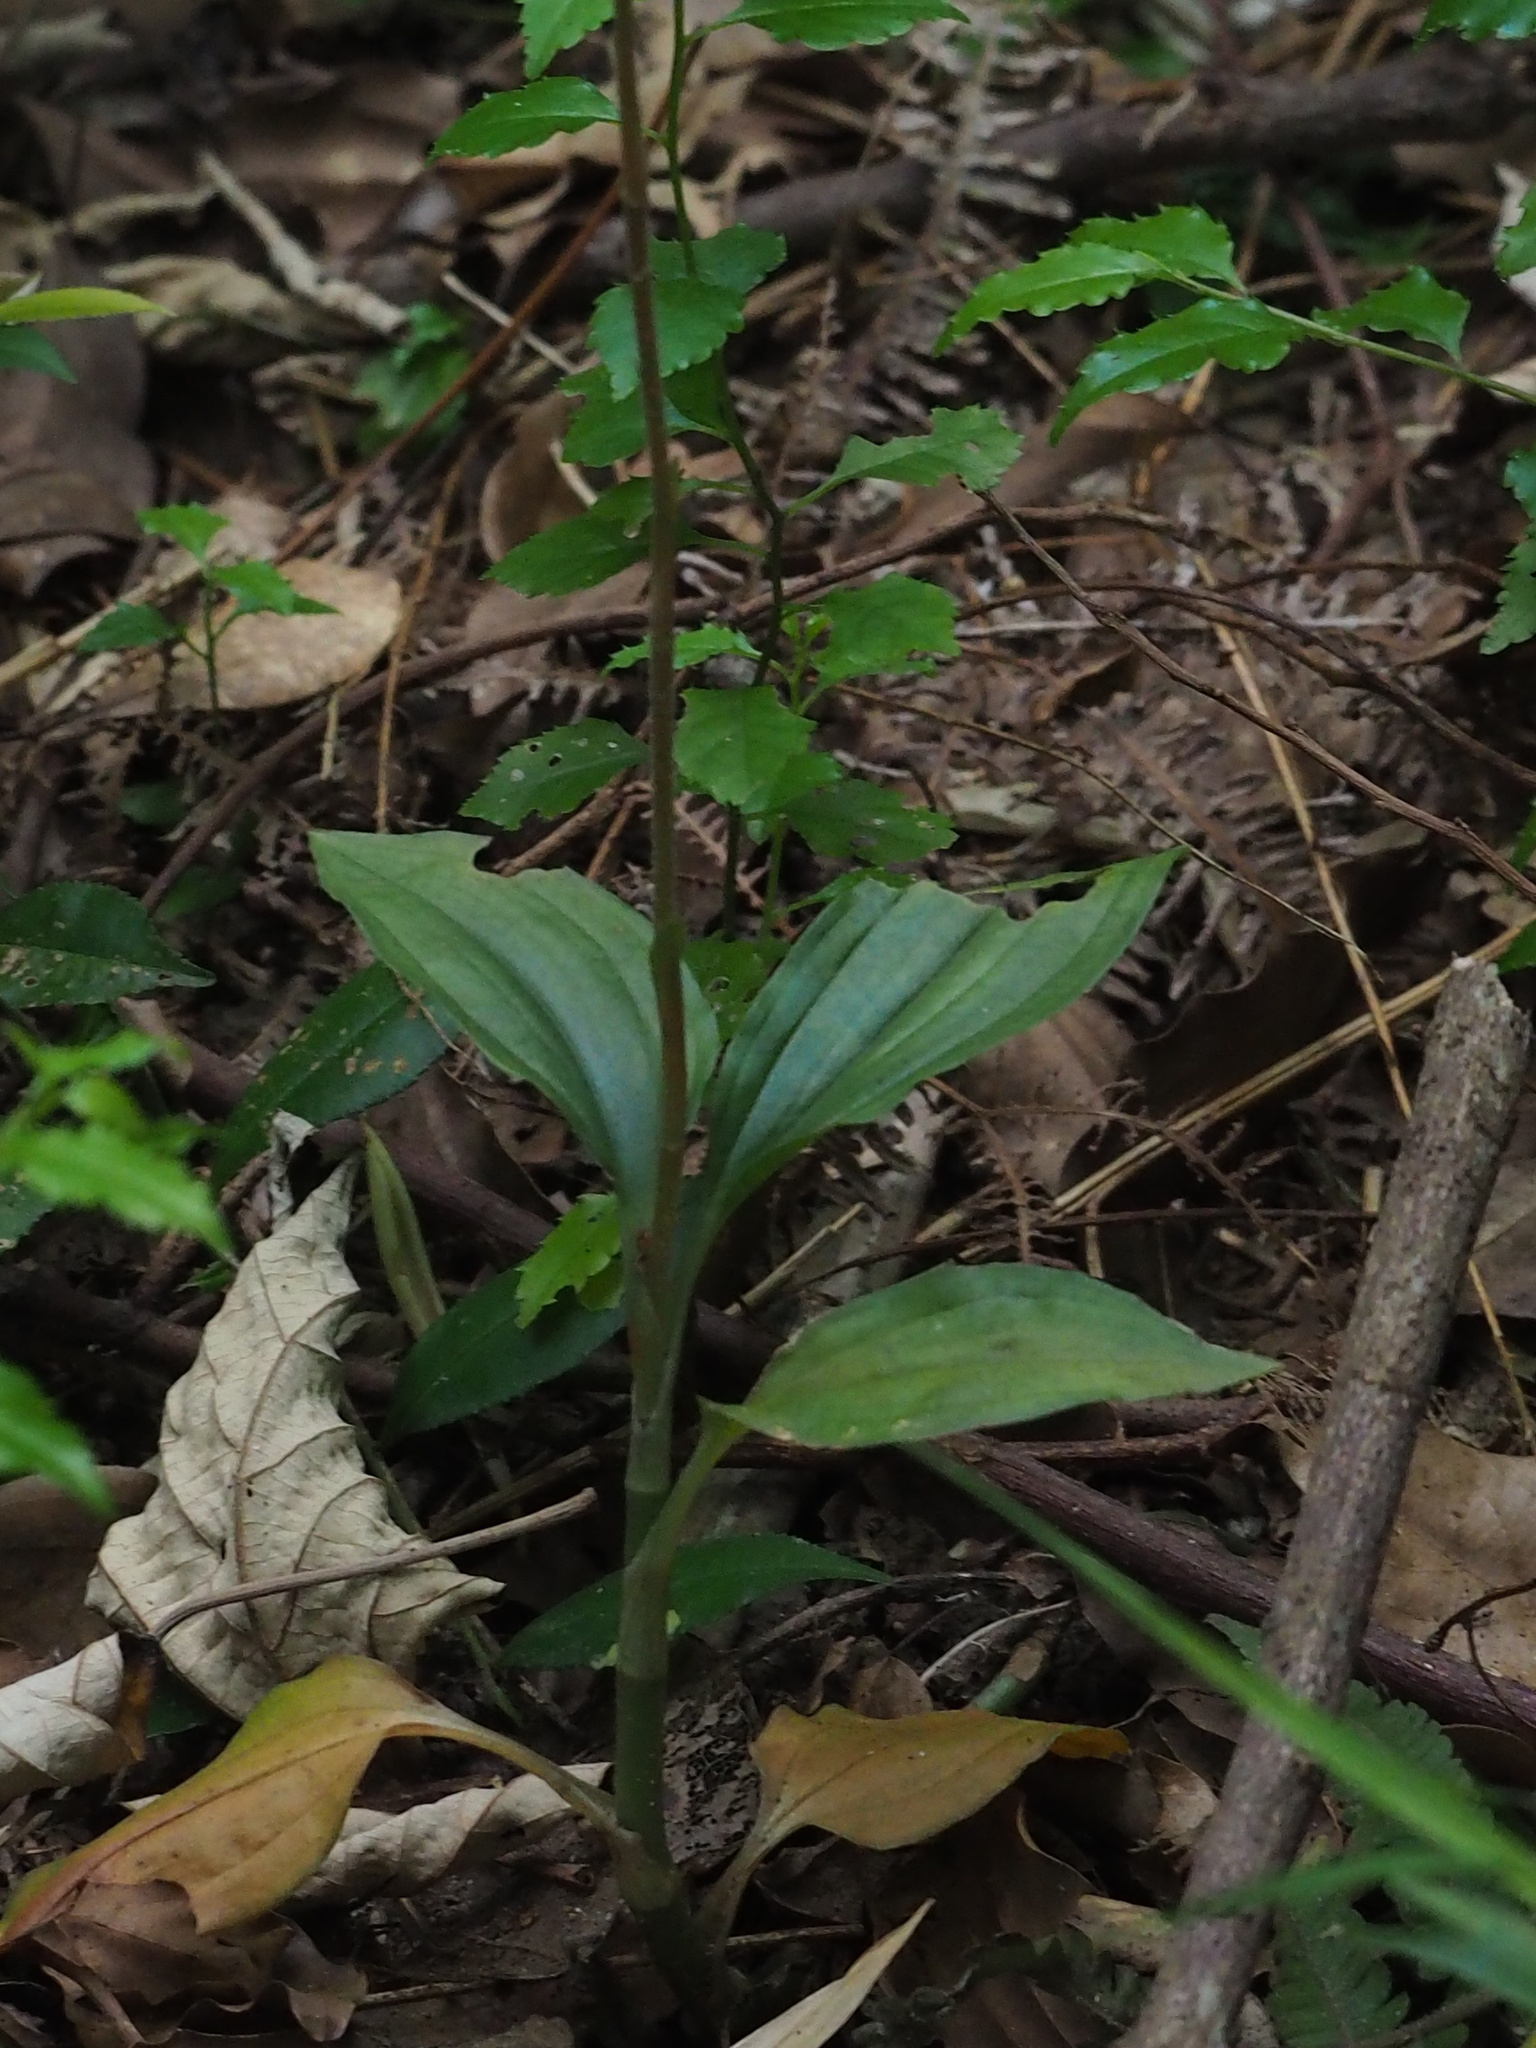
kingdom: Plantae
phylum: Tracheophyta
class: Liliopsida
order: Asparagales
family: Orchidaceae
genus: Erythrodes
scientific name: Erythrodes chinensis
